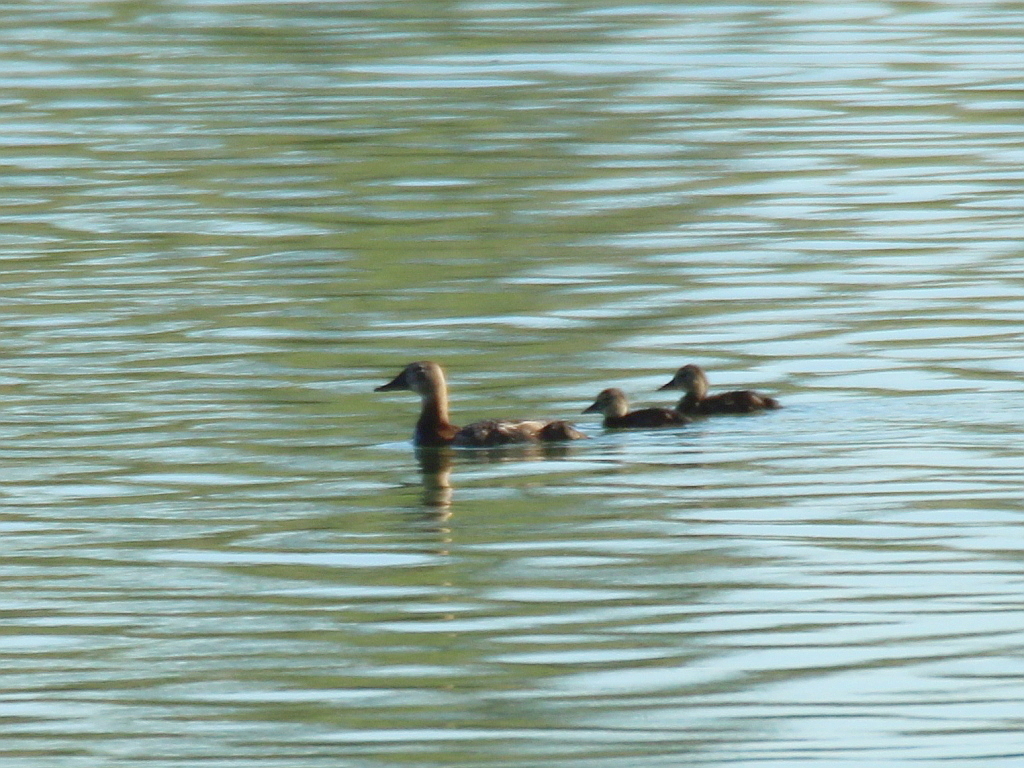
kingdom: Animalia
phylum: Chordata
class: Aves
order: Anseriformes
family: Anatidae
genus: Aythya
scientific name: Aythya ferina
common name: Common pochard
